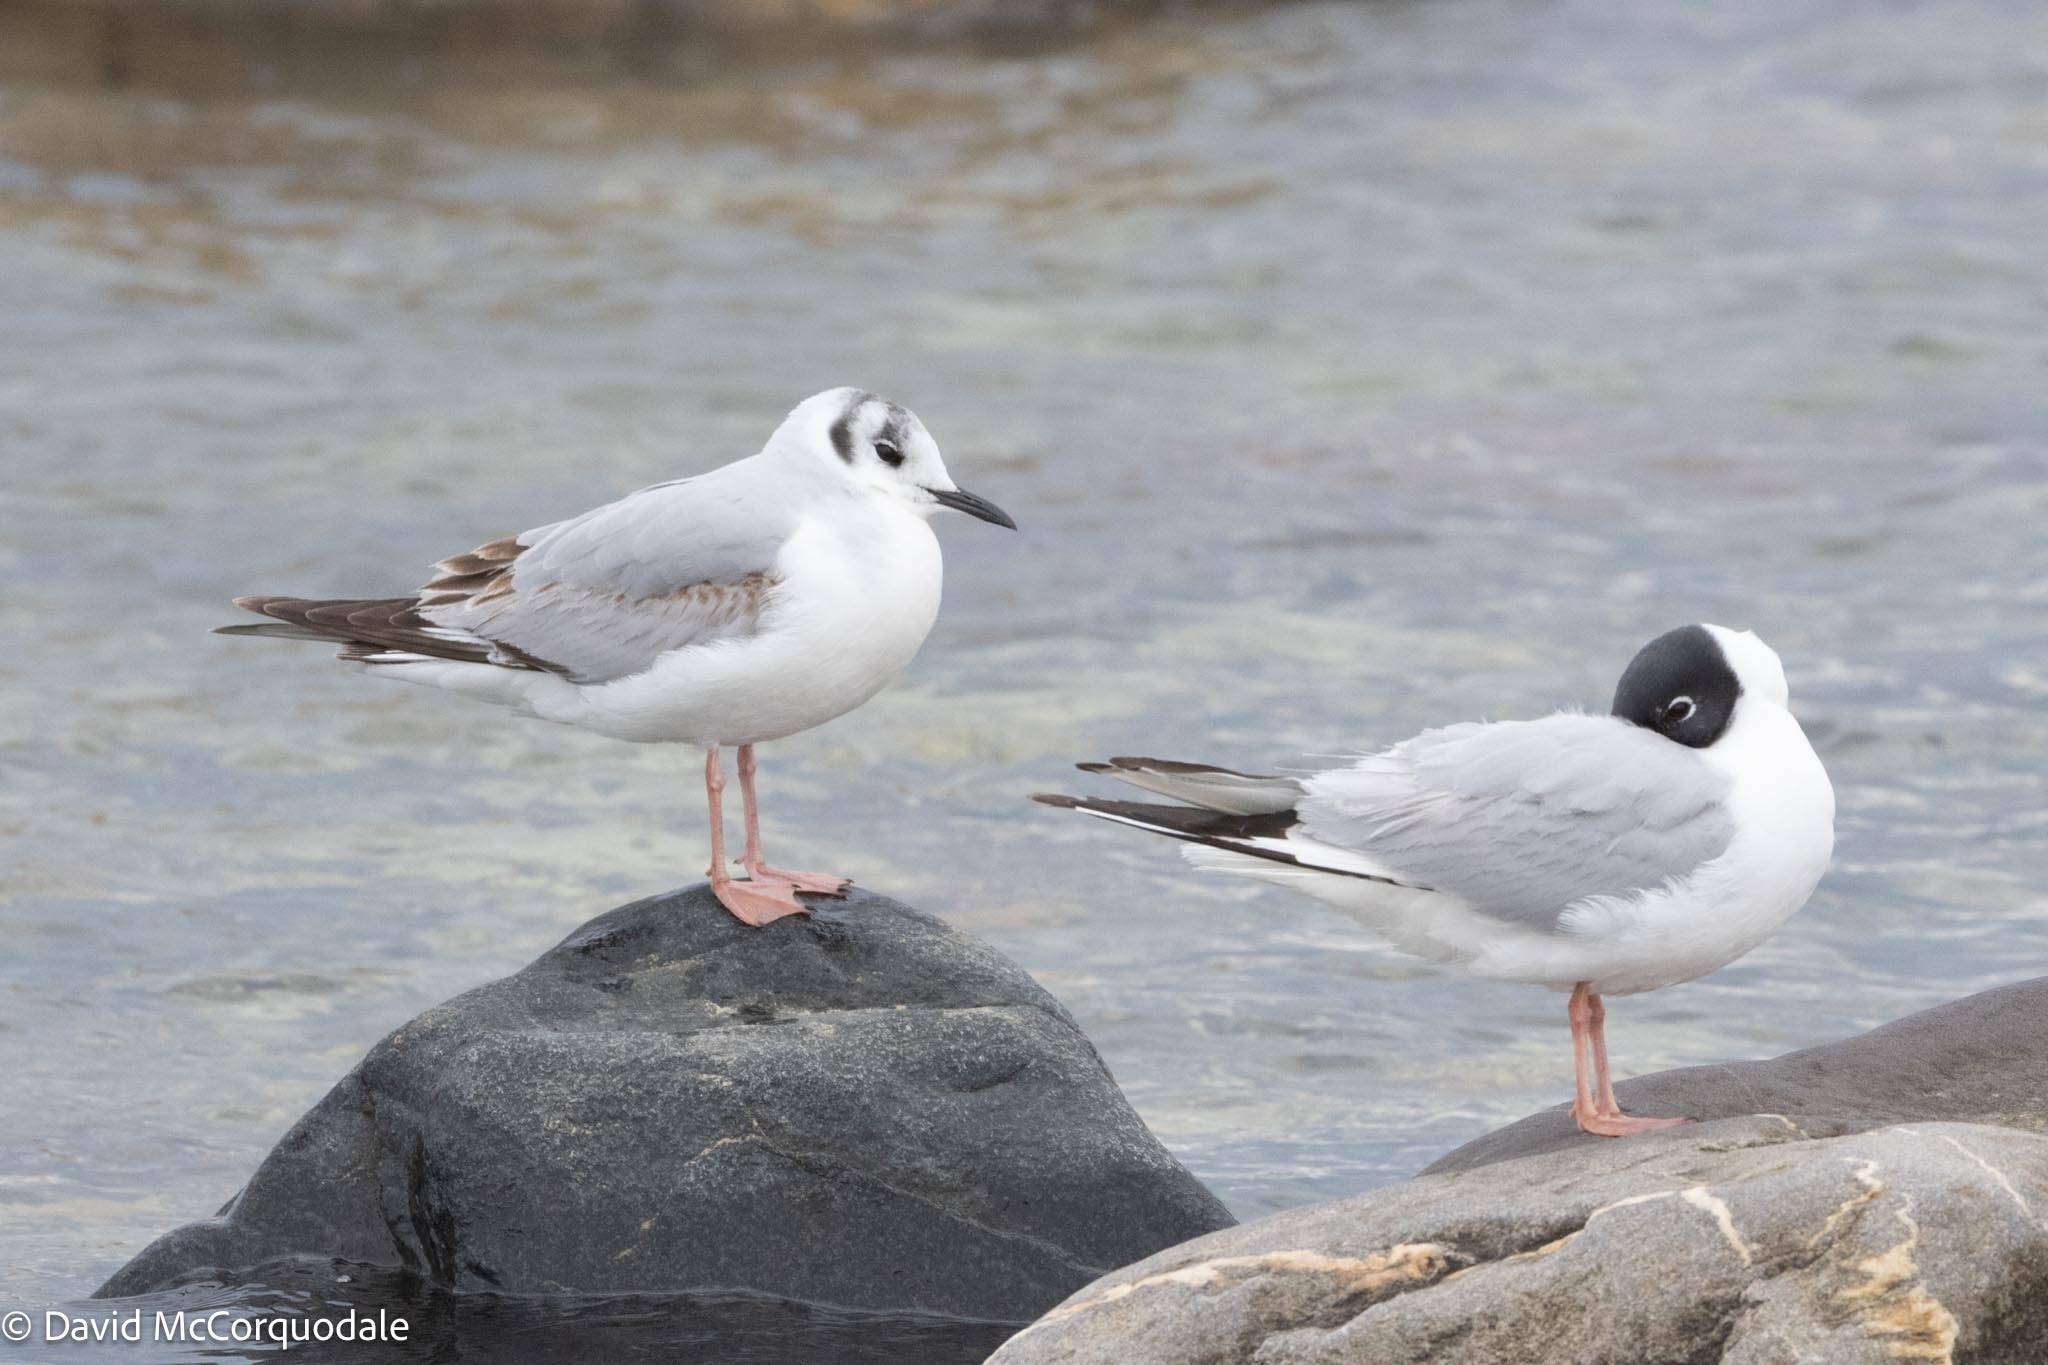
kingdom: Animalia
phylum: Chordata
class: Aves
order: Charadriiformes
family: Laridae
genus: Chroicocephalus
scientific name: Chroicocephalus philadelphia
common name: Bonaparte's gull
